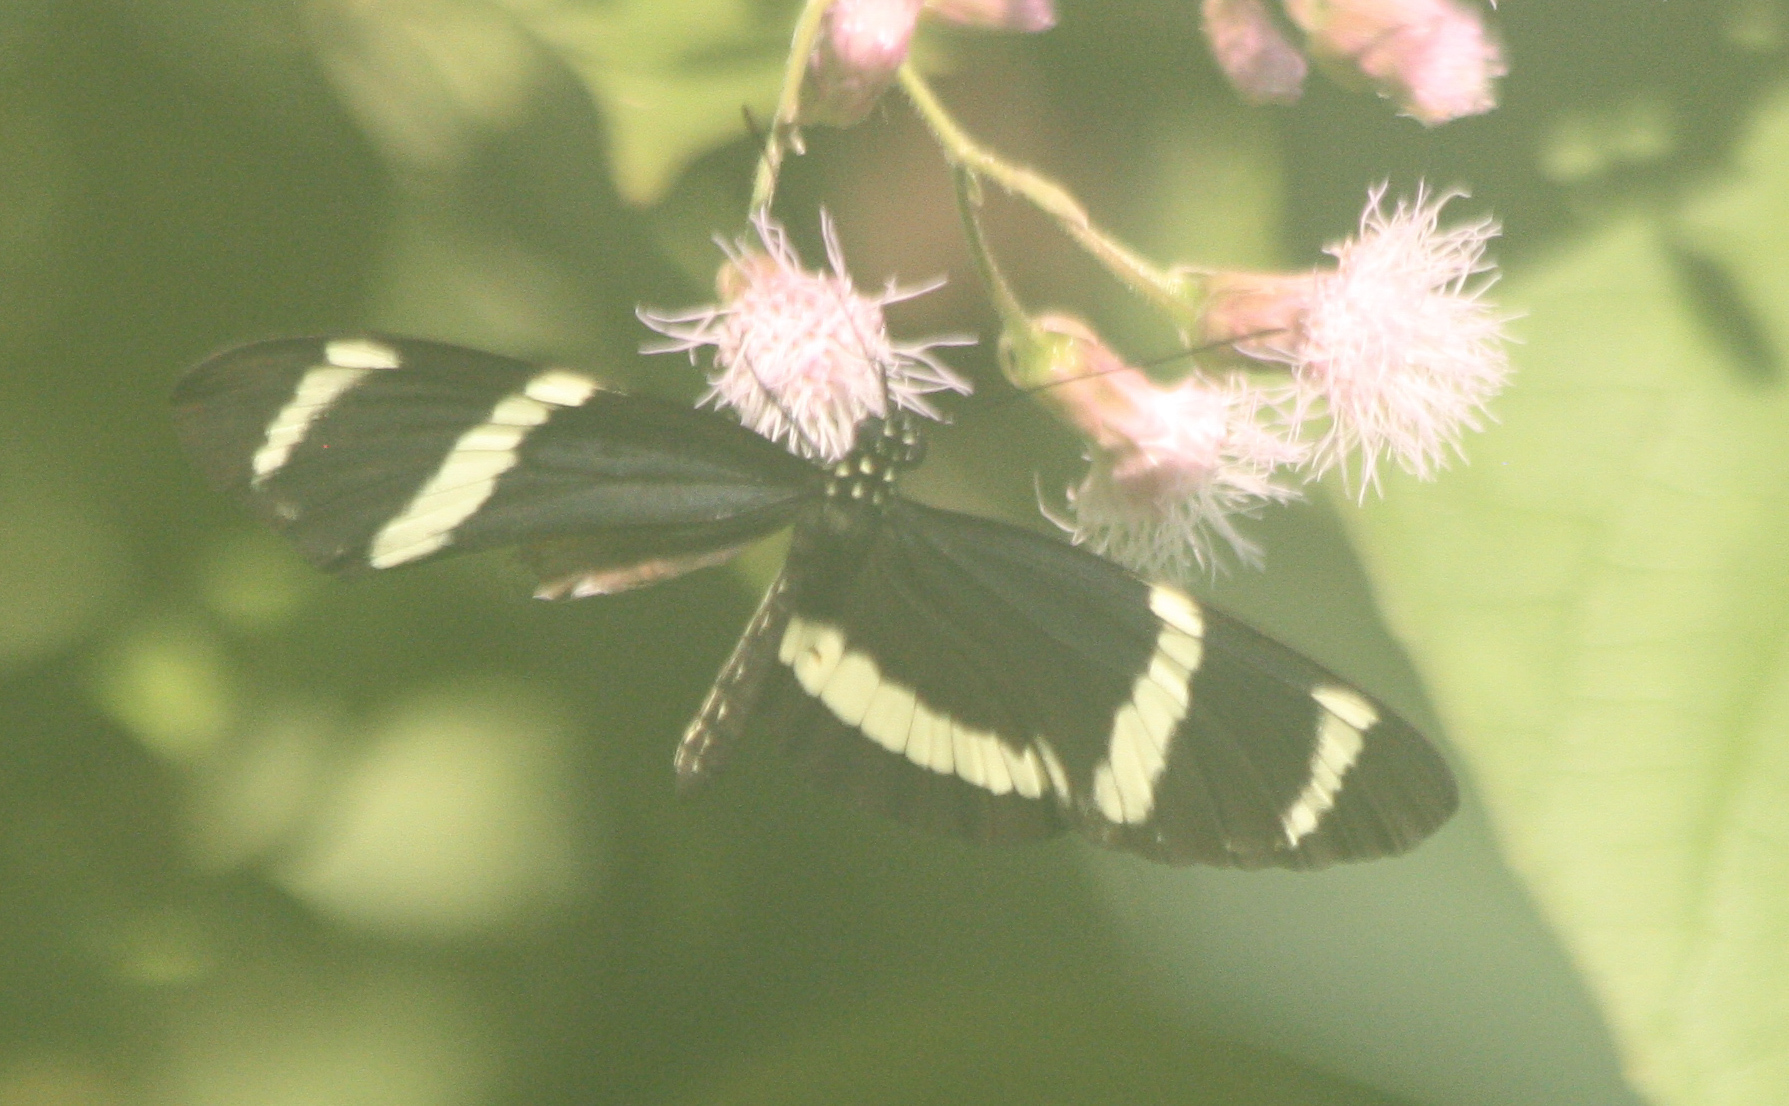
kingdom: Animalia
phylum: Arthropoda
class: Insecta
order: Lepidoptera
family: Nymphalidae
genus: Heliconius
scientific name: Heliconius pachinus
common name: Pachinus longwing
